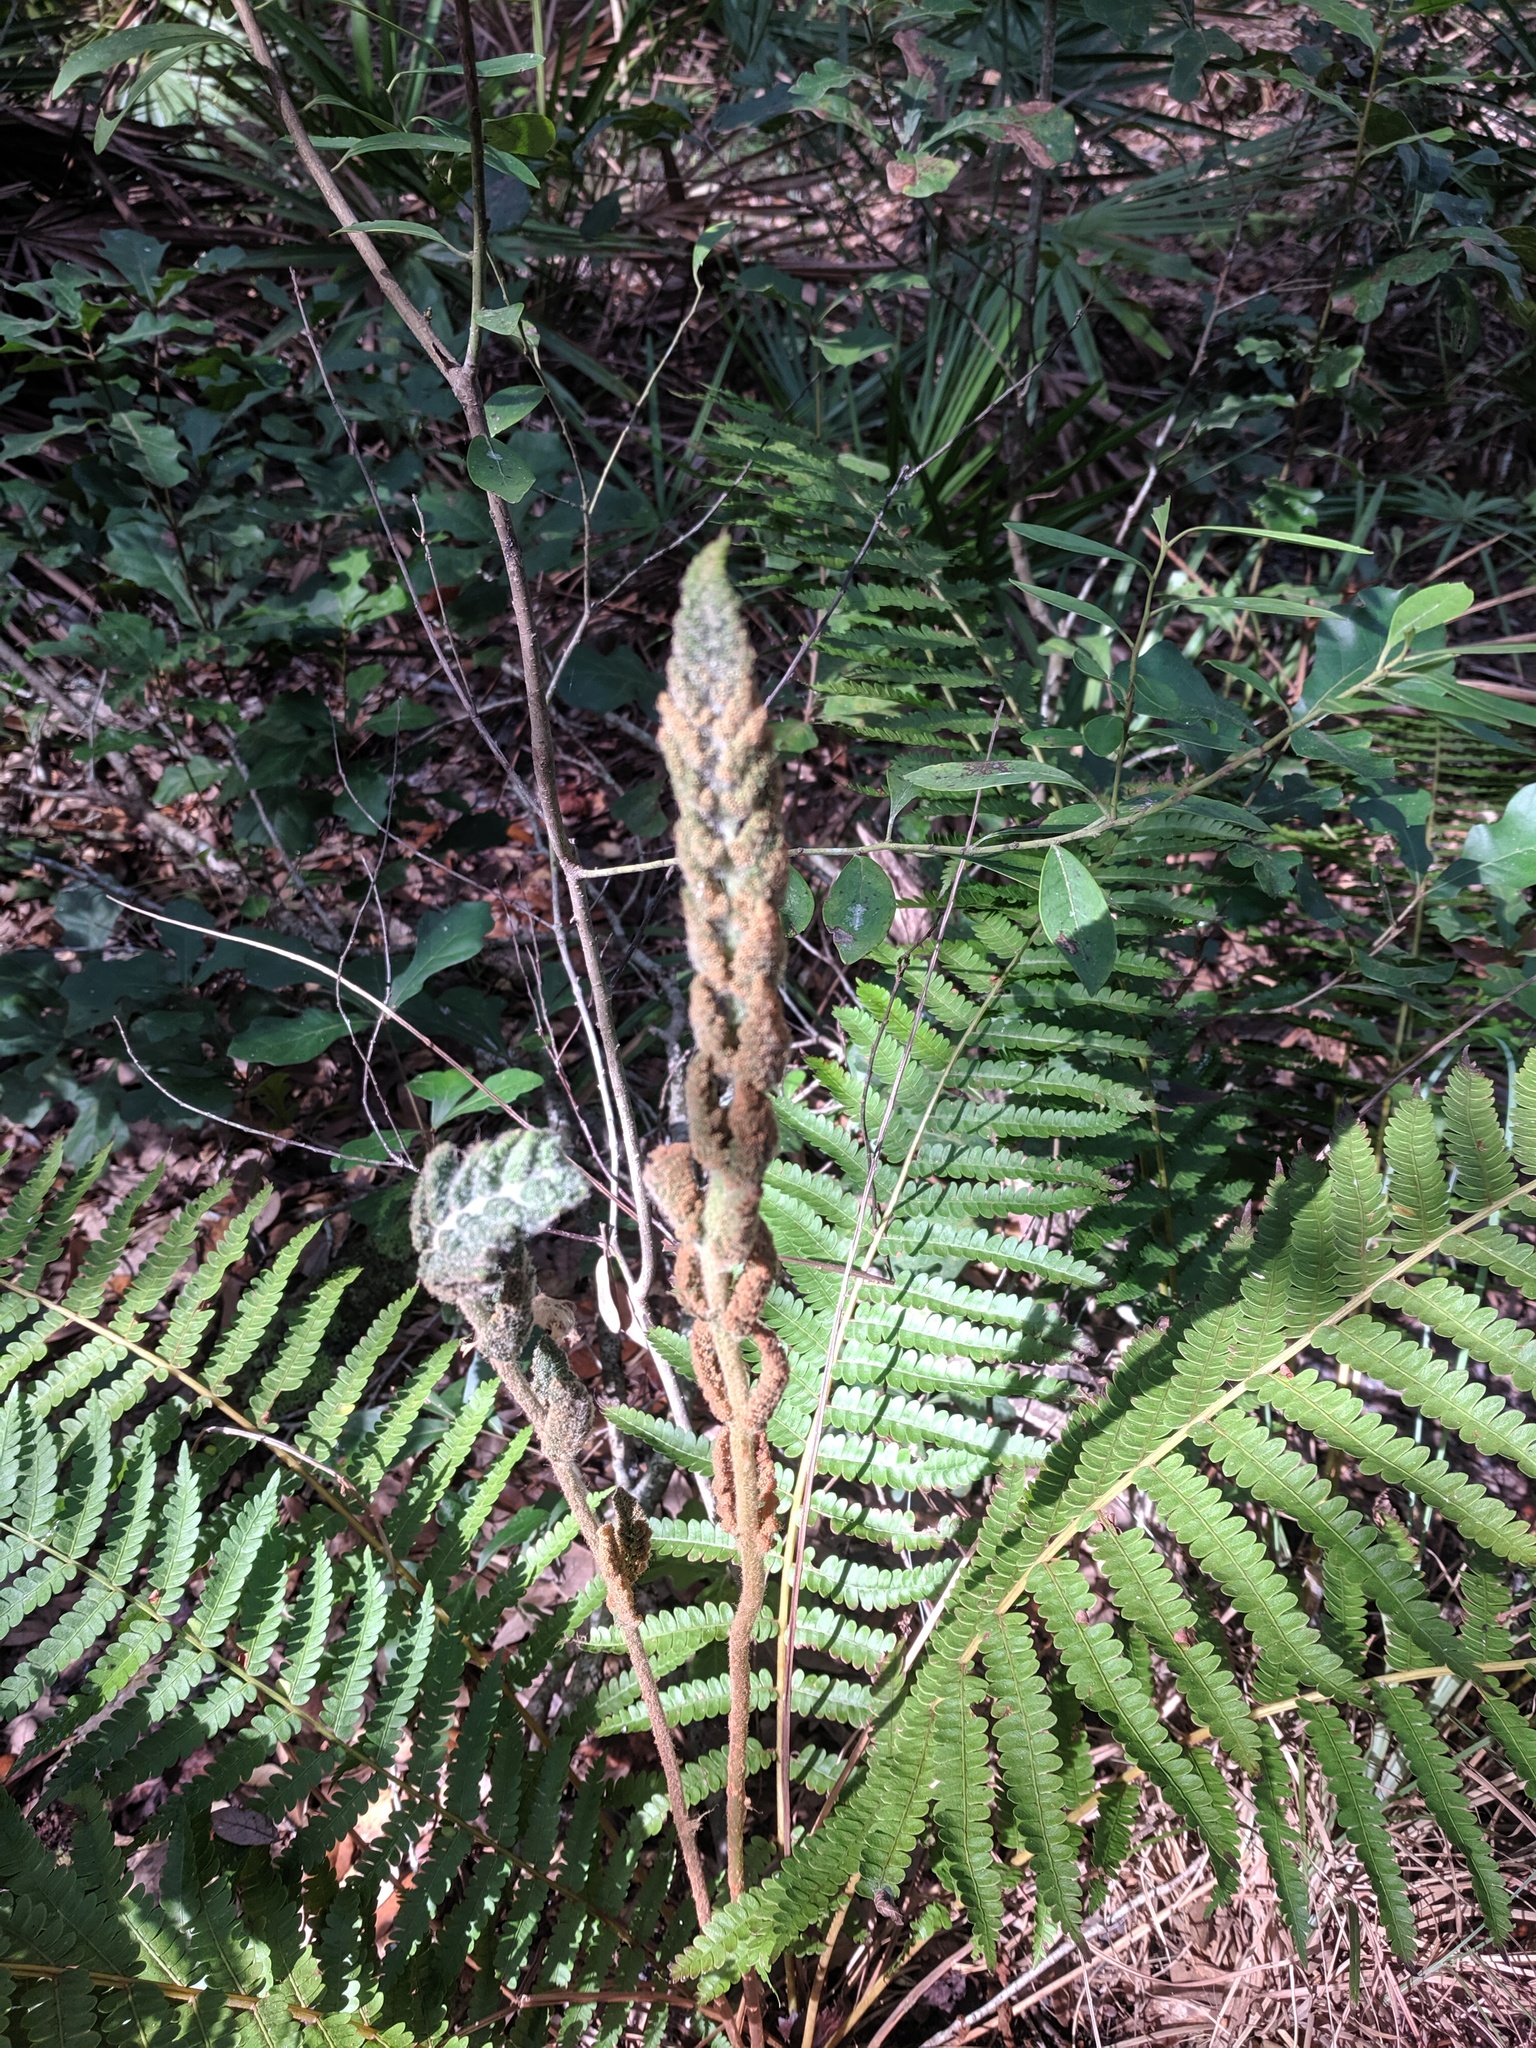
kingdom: Plantae
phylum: Tracheophyta
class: Polypodiopsida
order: Osmundales
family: Osmundaceae
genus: Osmundastrum
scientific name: Osmundastrum cinnamomeum
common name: Cinnamon fern
